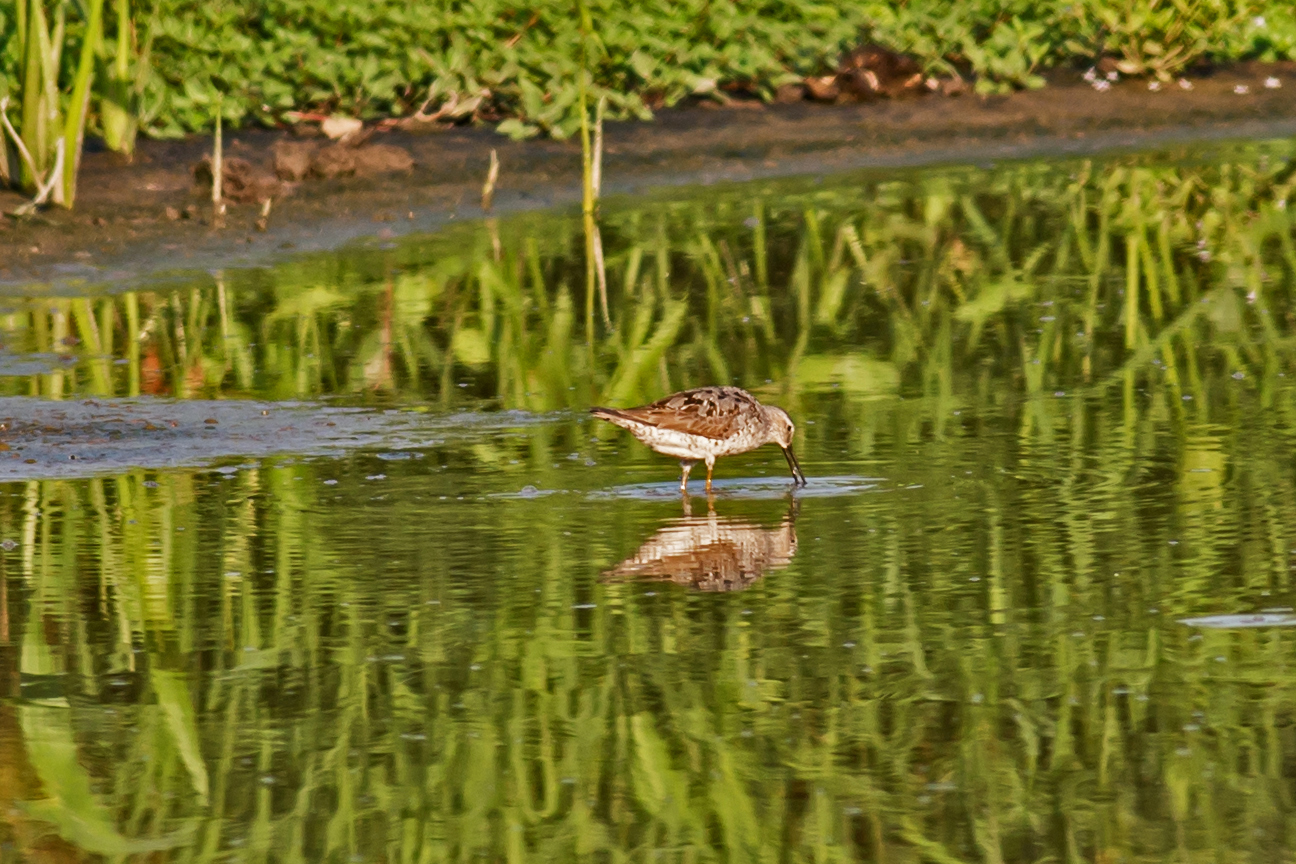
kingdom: Animalia
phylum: Chordata
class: Aves
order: Charadriiformes
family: Scolopacidae
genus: Calidris
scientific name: Calidris himantopus
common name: Stilt sandpiper
